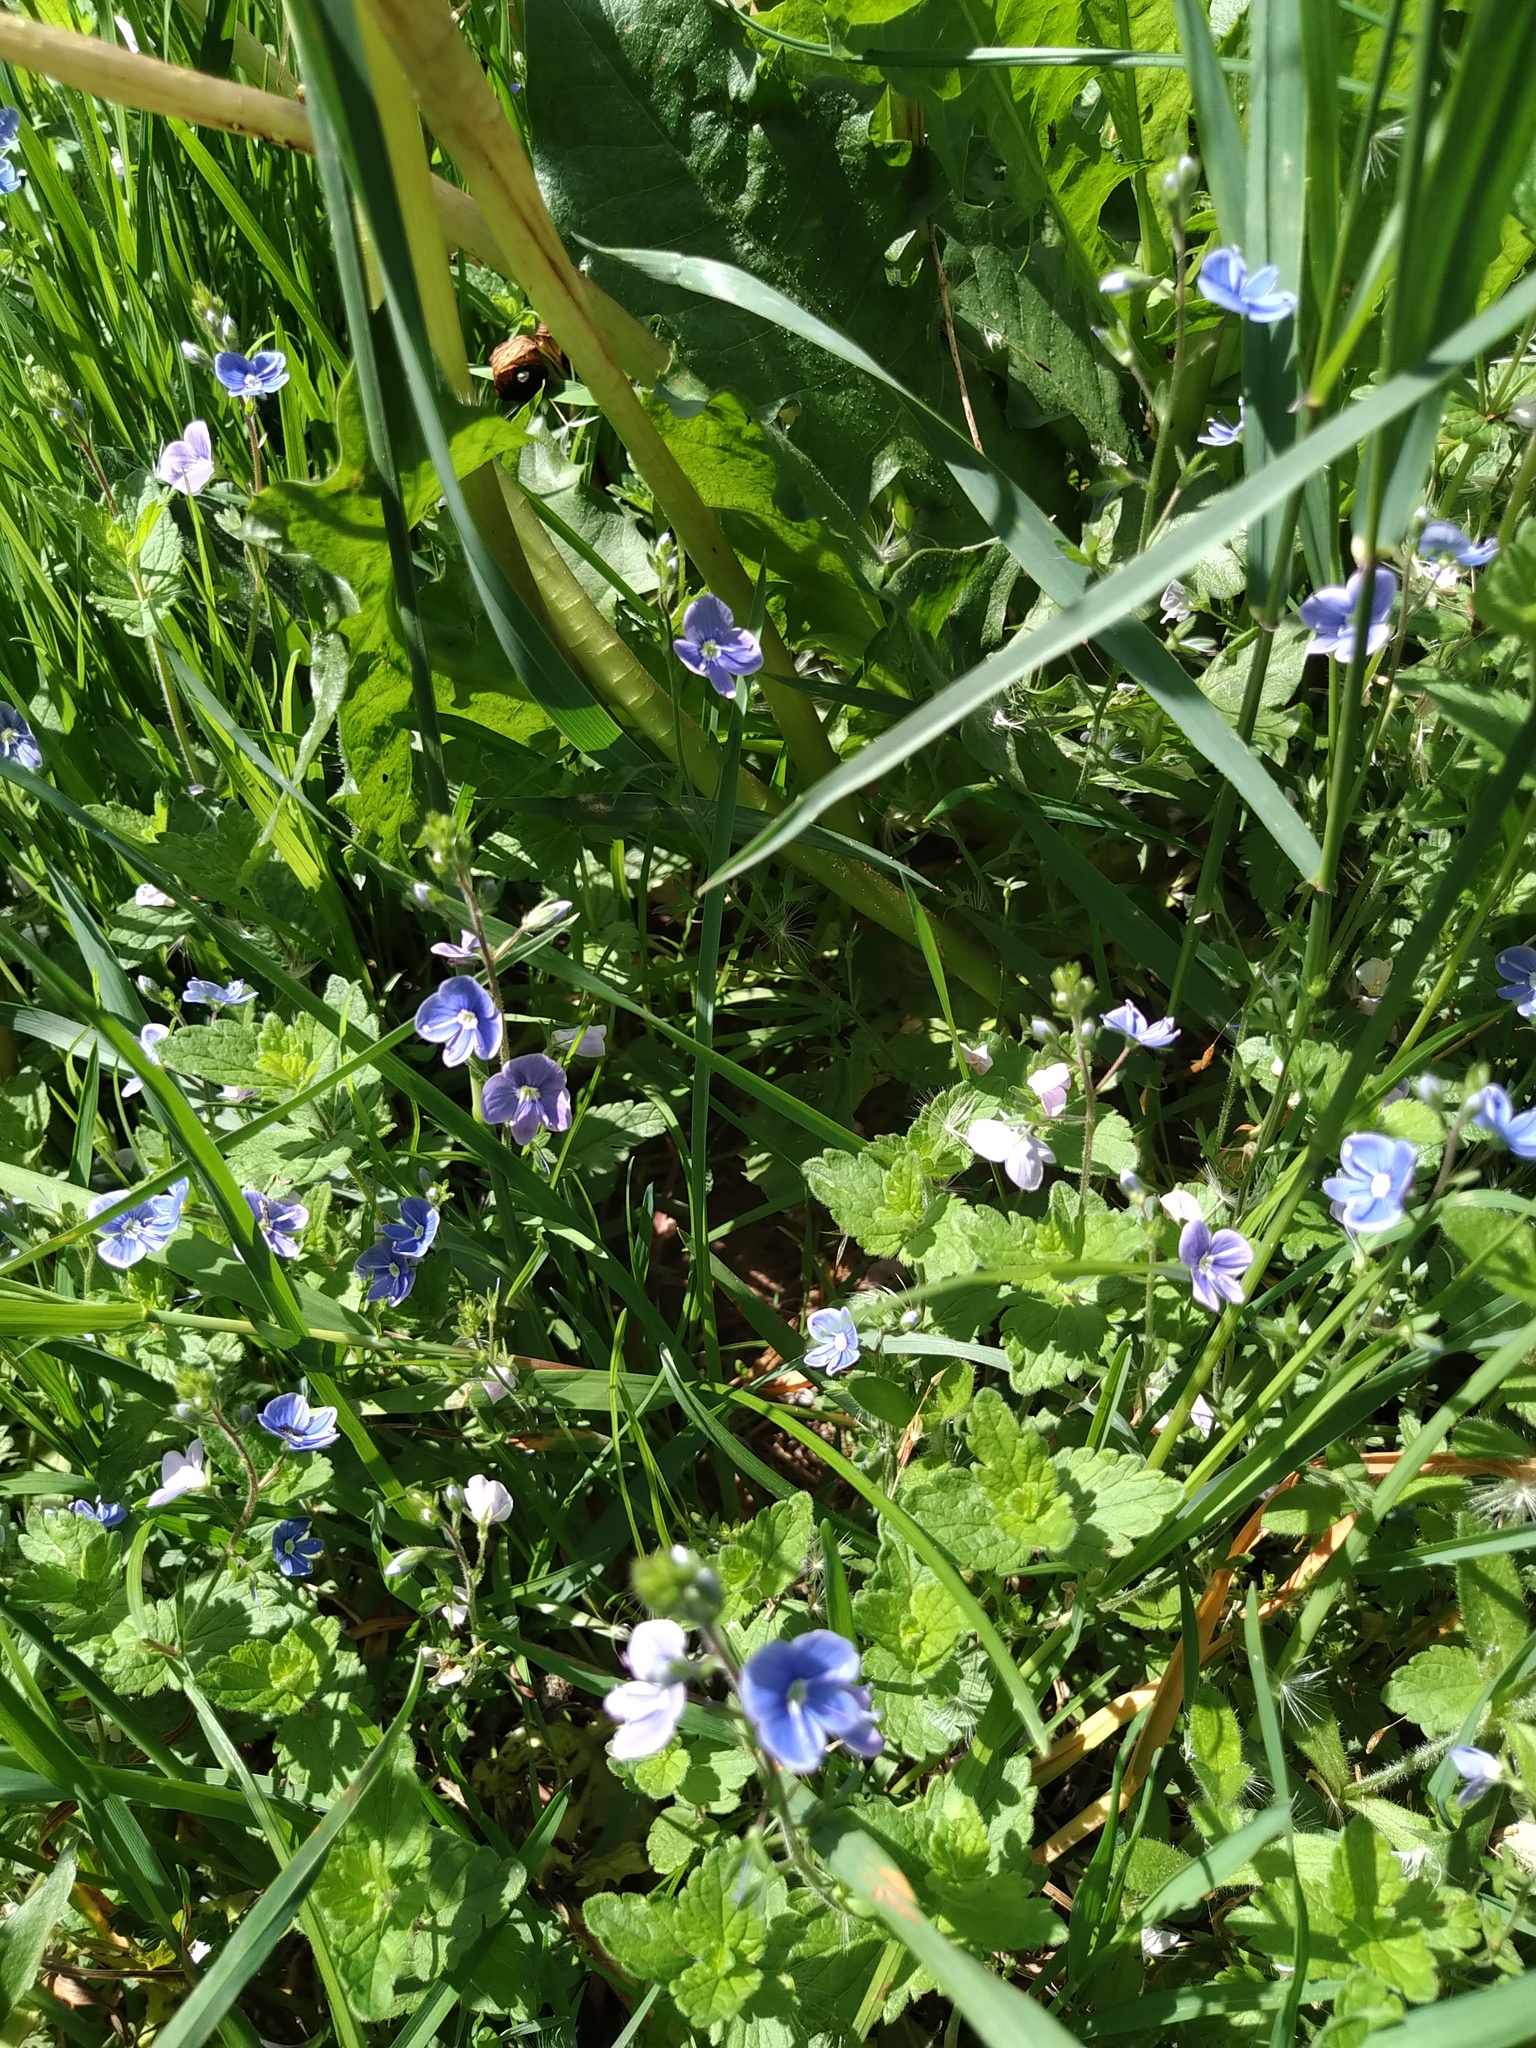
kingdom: Plantae
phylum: Tracheophyta
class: Magnoliopsida
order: Lamiales
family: Plantaginaceae
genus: Veronica
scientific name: Veronica chamaedrys
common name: Germander speedwell
